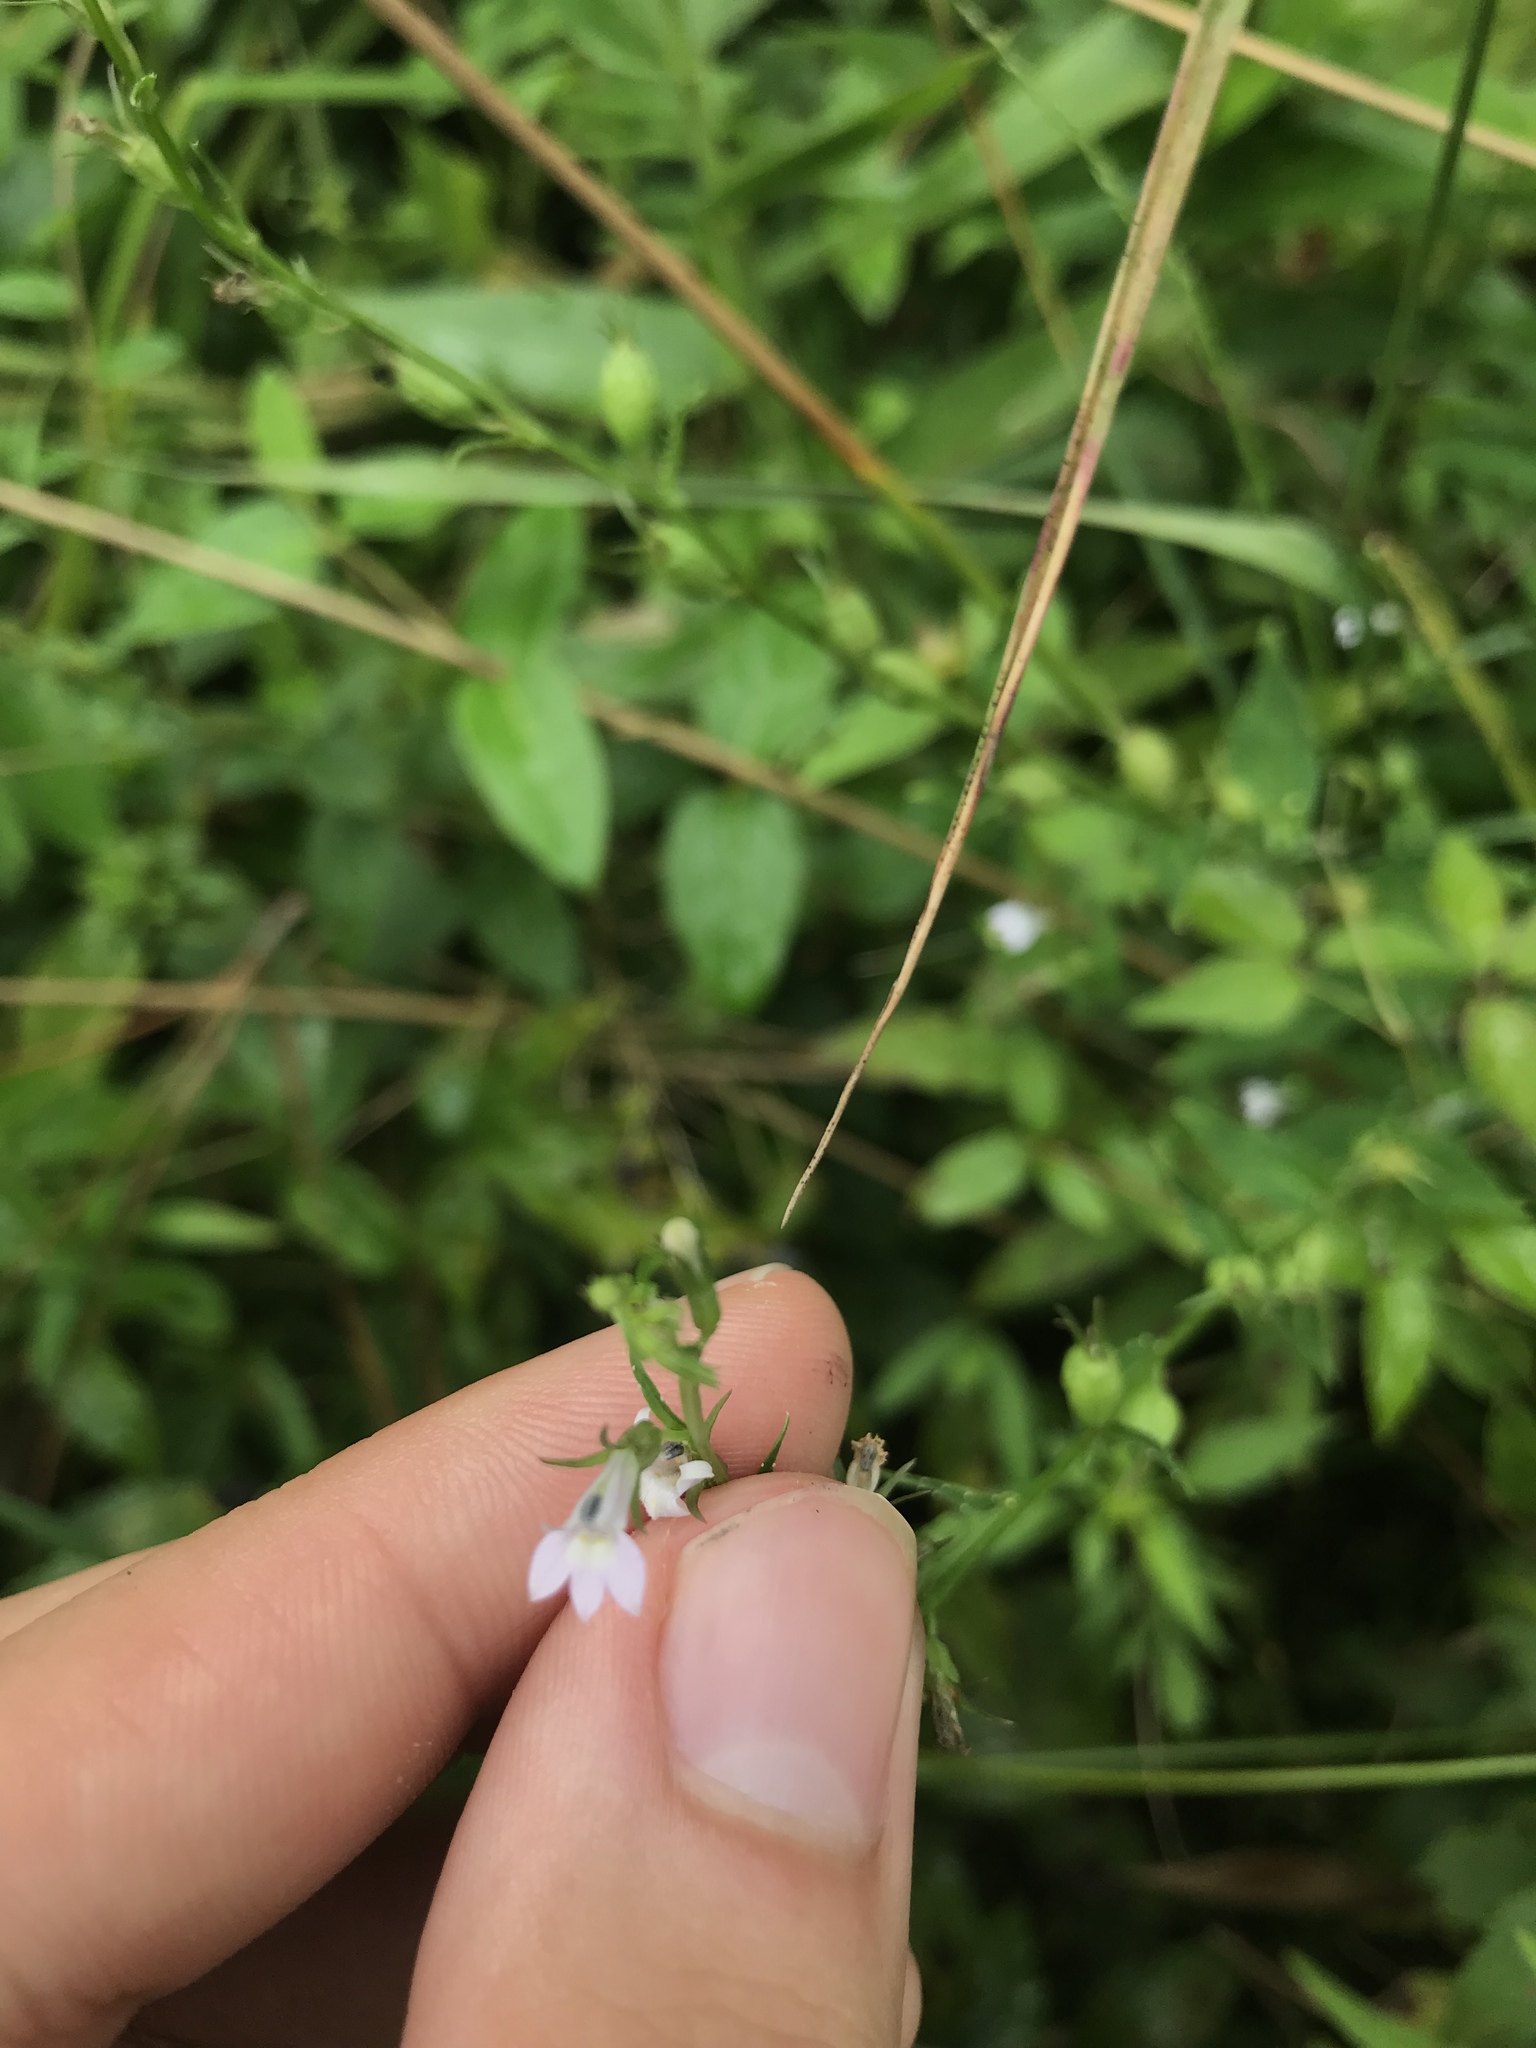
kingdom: Plantae
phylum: Tracheophyta
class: Magnoliopsida
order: Asterales
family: Campanulaceae
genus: Lobelia
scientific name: Lobelia inflata
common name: Indian tobacco
